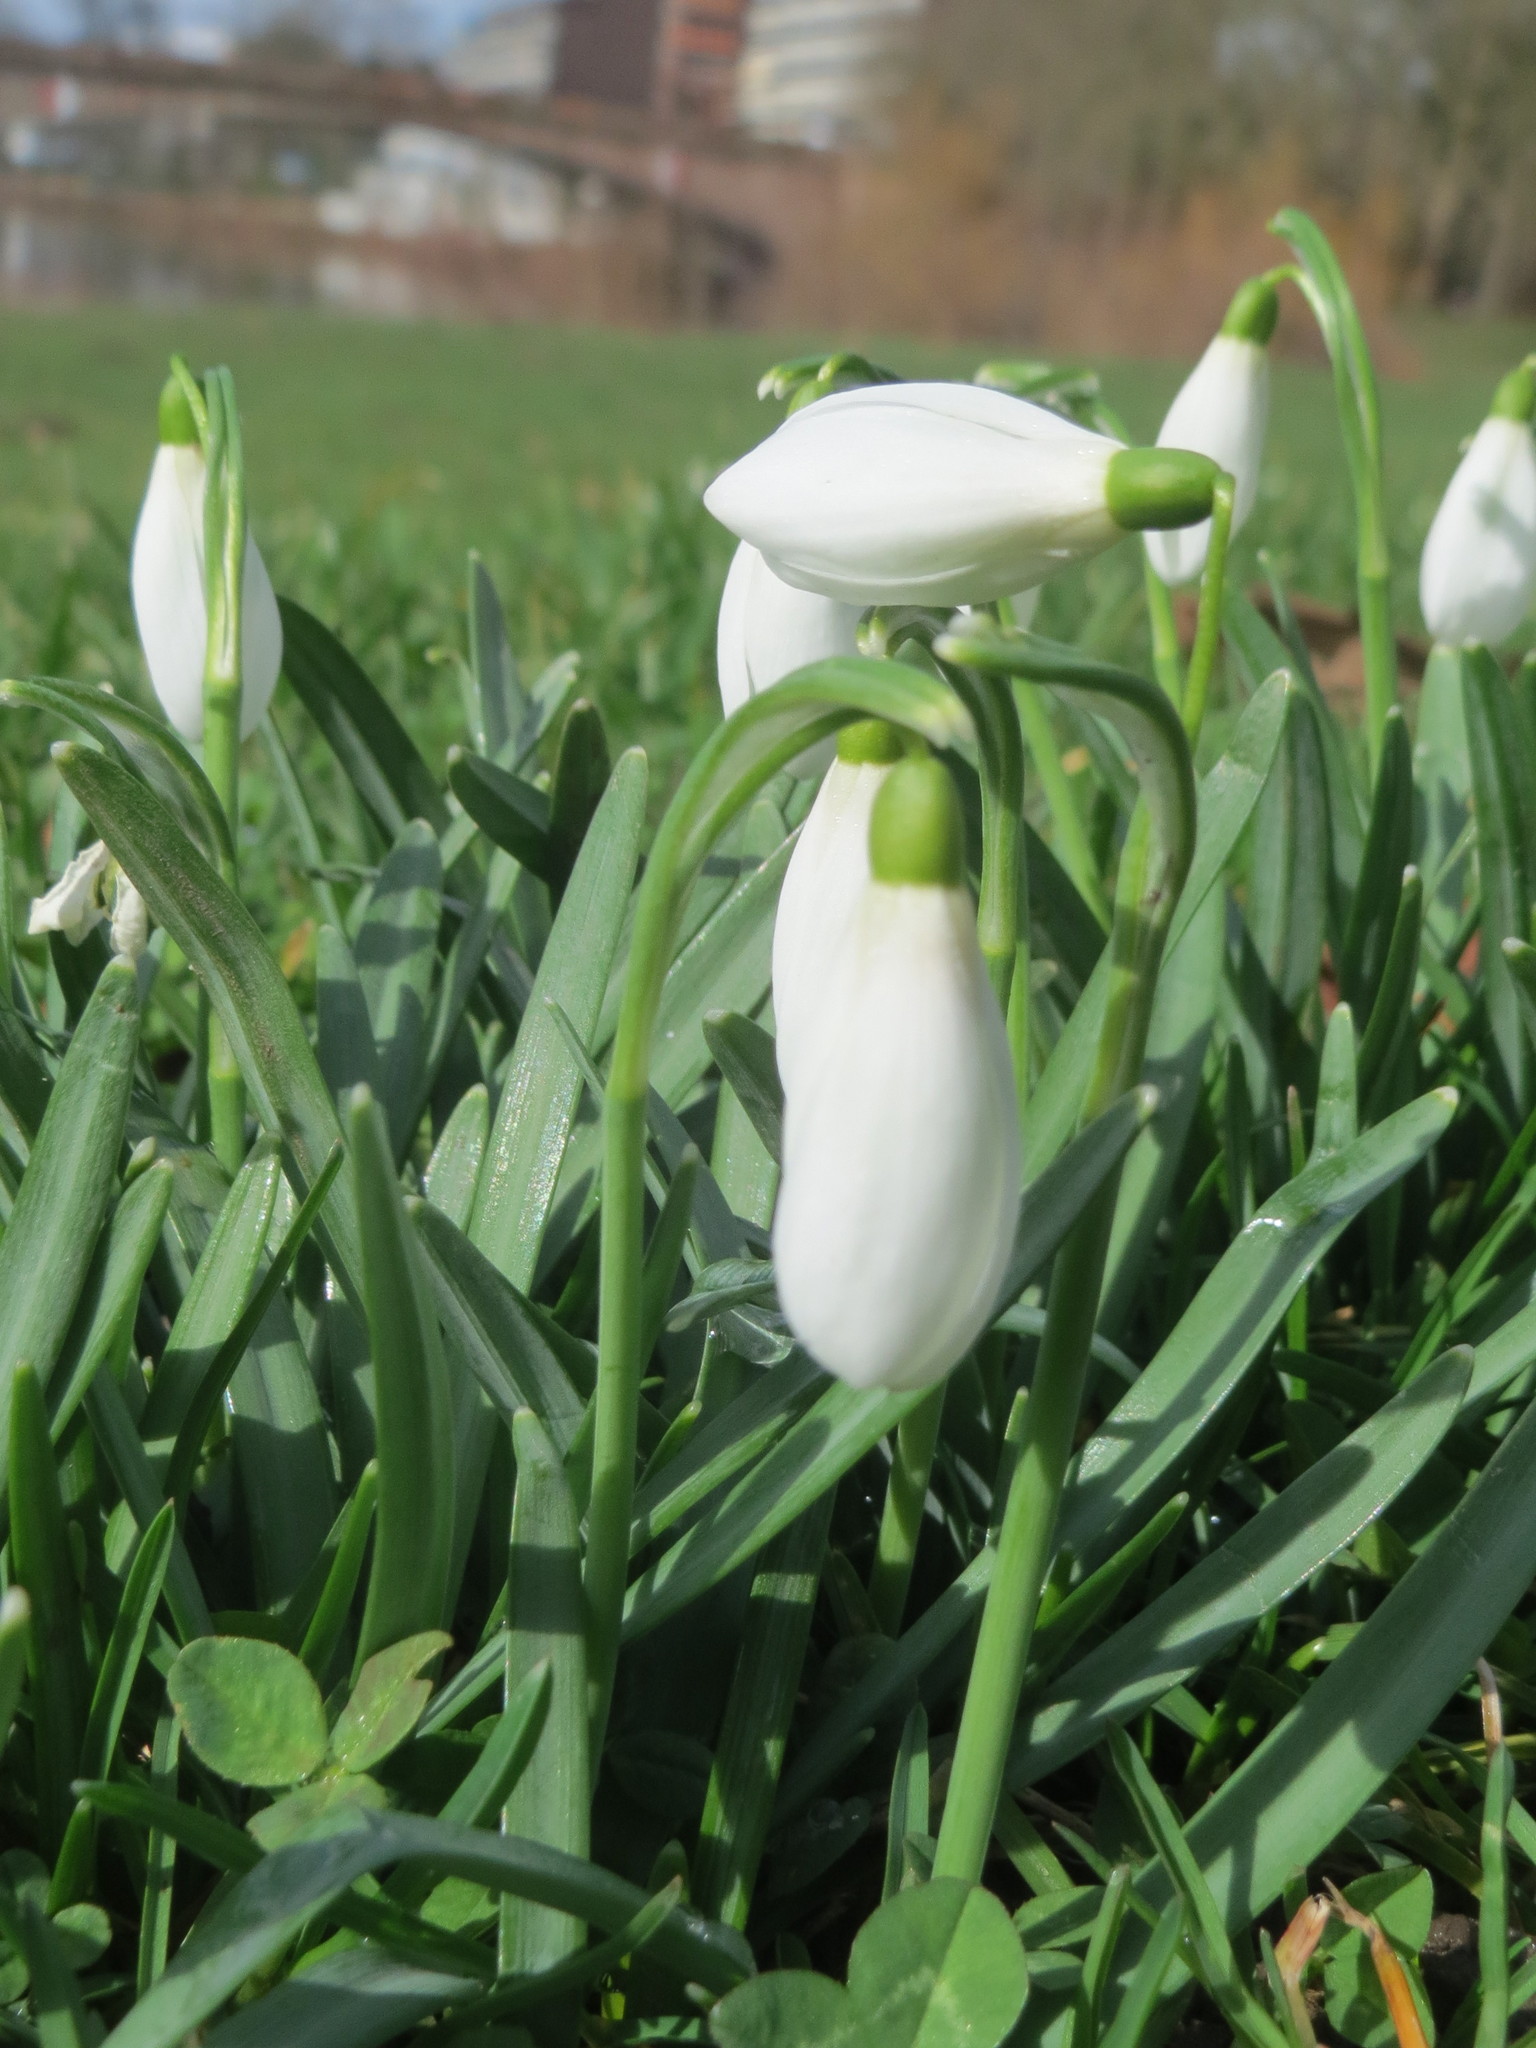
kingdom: Plantae
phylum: Tracheophyta
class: Liliopsida
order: Asparagales
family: Amaryllidaceae
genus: Galanthus
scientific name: Galanthus nivalis
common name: Snowdrop
